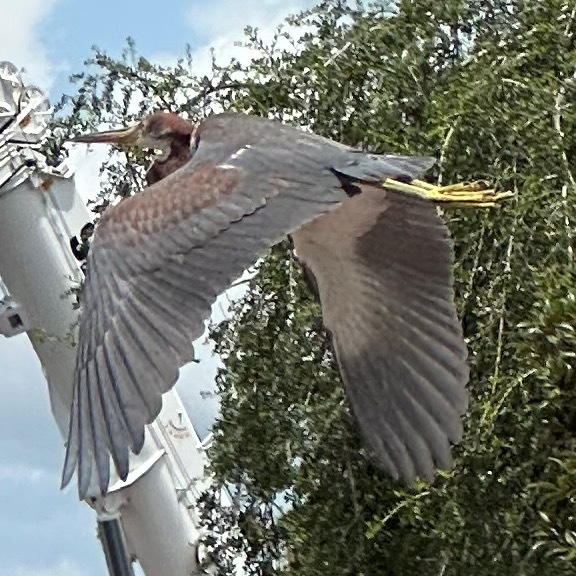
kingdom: Animalia
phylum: Chordata
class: Aves
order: Pelecaniformes
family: Ardeidae
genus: Egretta
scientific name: Egretta tricolor
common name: Tricolored heron
